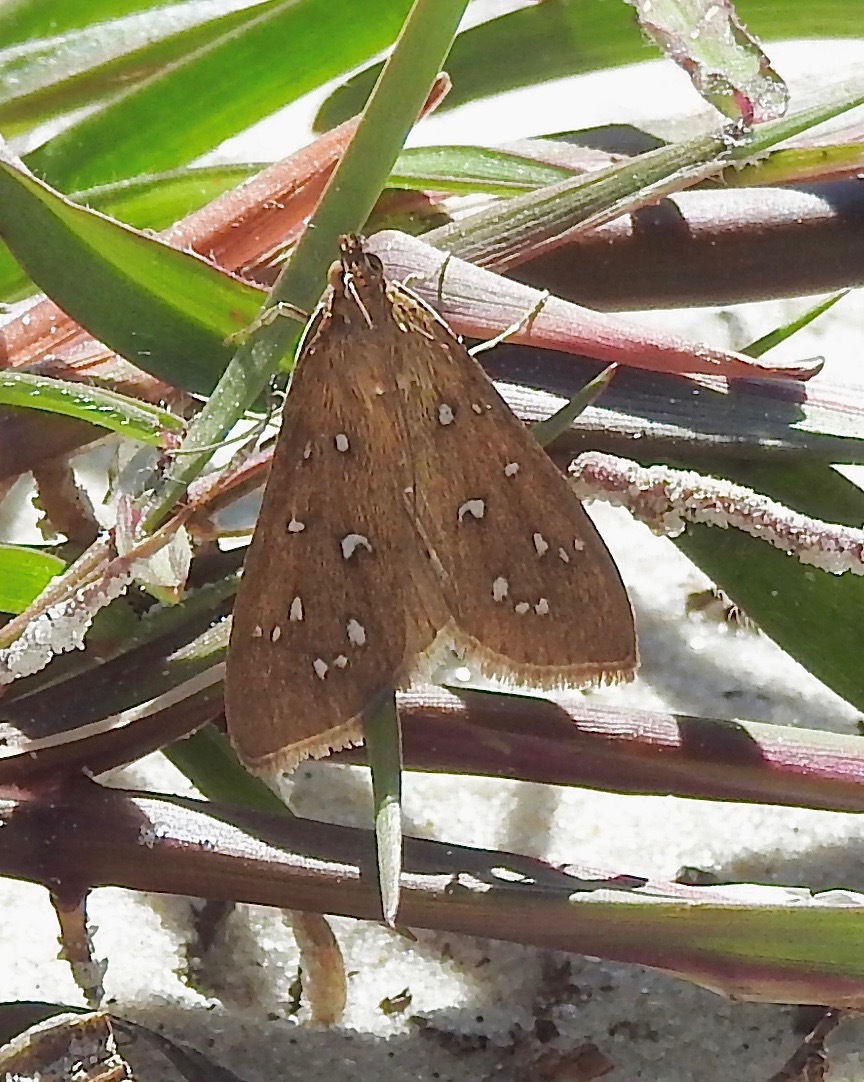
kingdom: Animalia
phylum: Arthropoda
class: Insecta
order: Lepidoptera
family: Crambidae
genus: Diastictis
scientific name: Diastictis argyralis
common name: White-spotted orange
